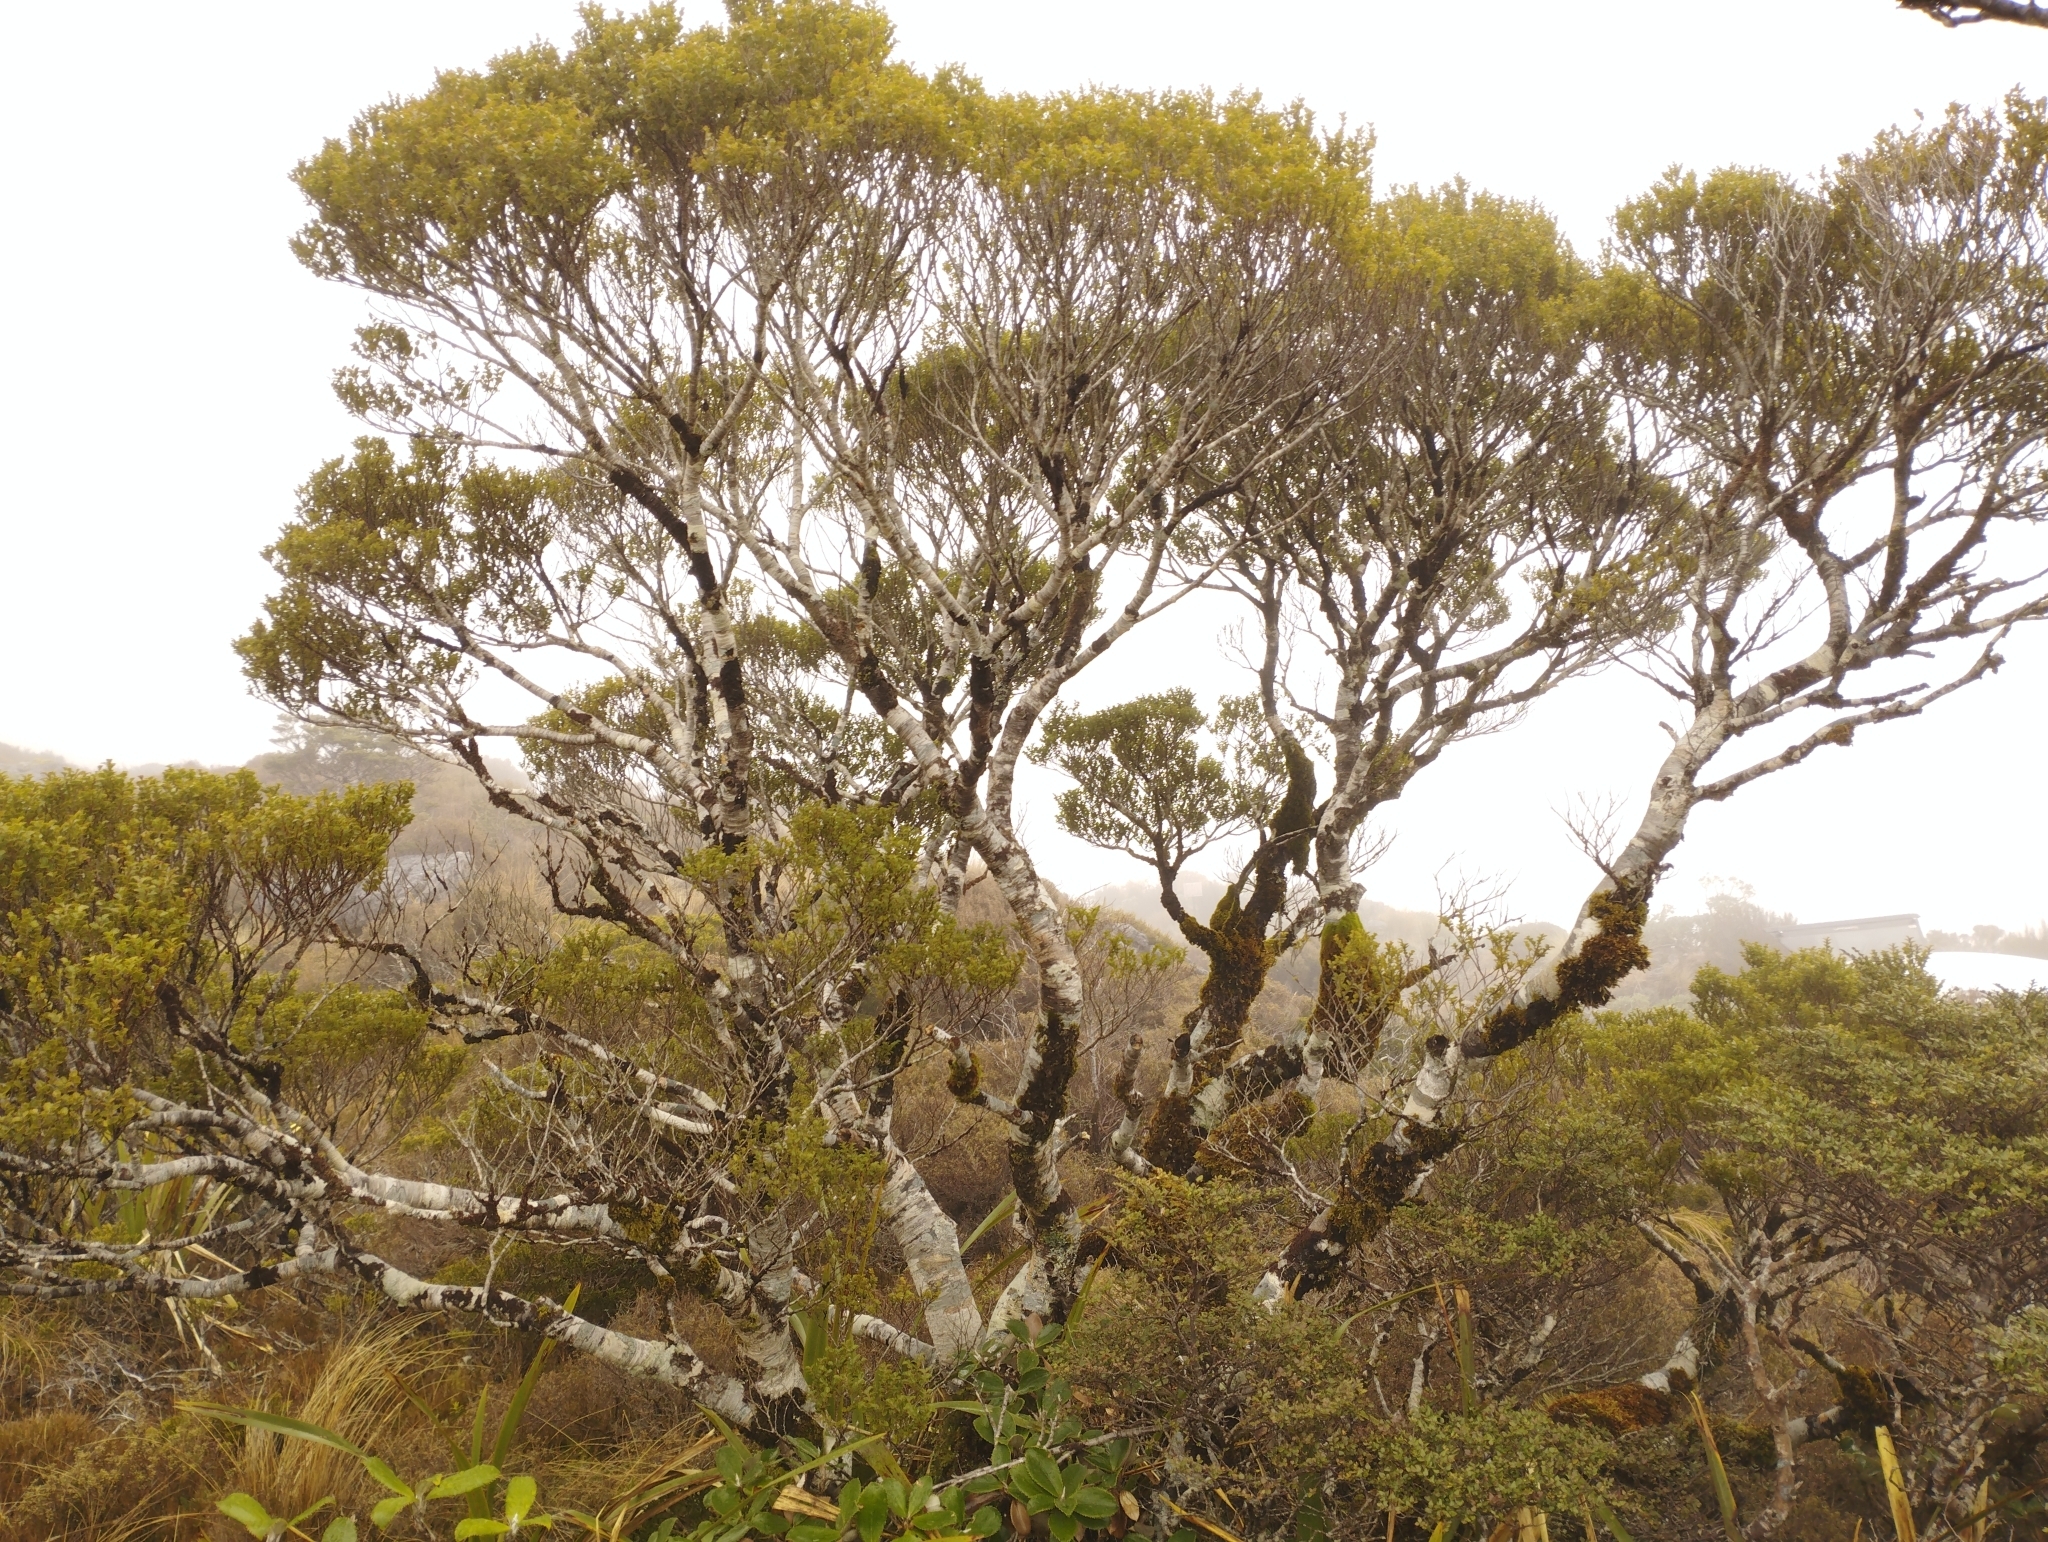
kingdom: Plantae
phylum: Tracheophyta
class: Magnoliopsida
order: Fagales
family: Nothofagaceae
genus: Nothofagus
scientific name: Nothofagus menziesii
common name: Silver beech
